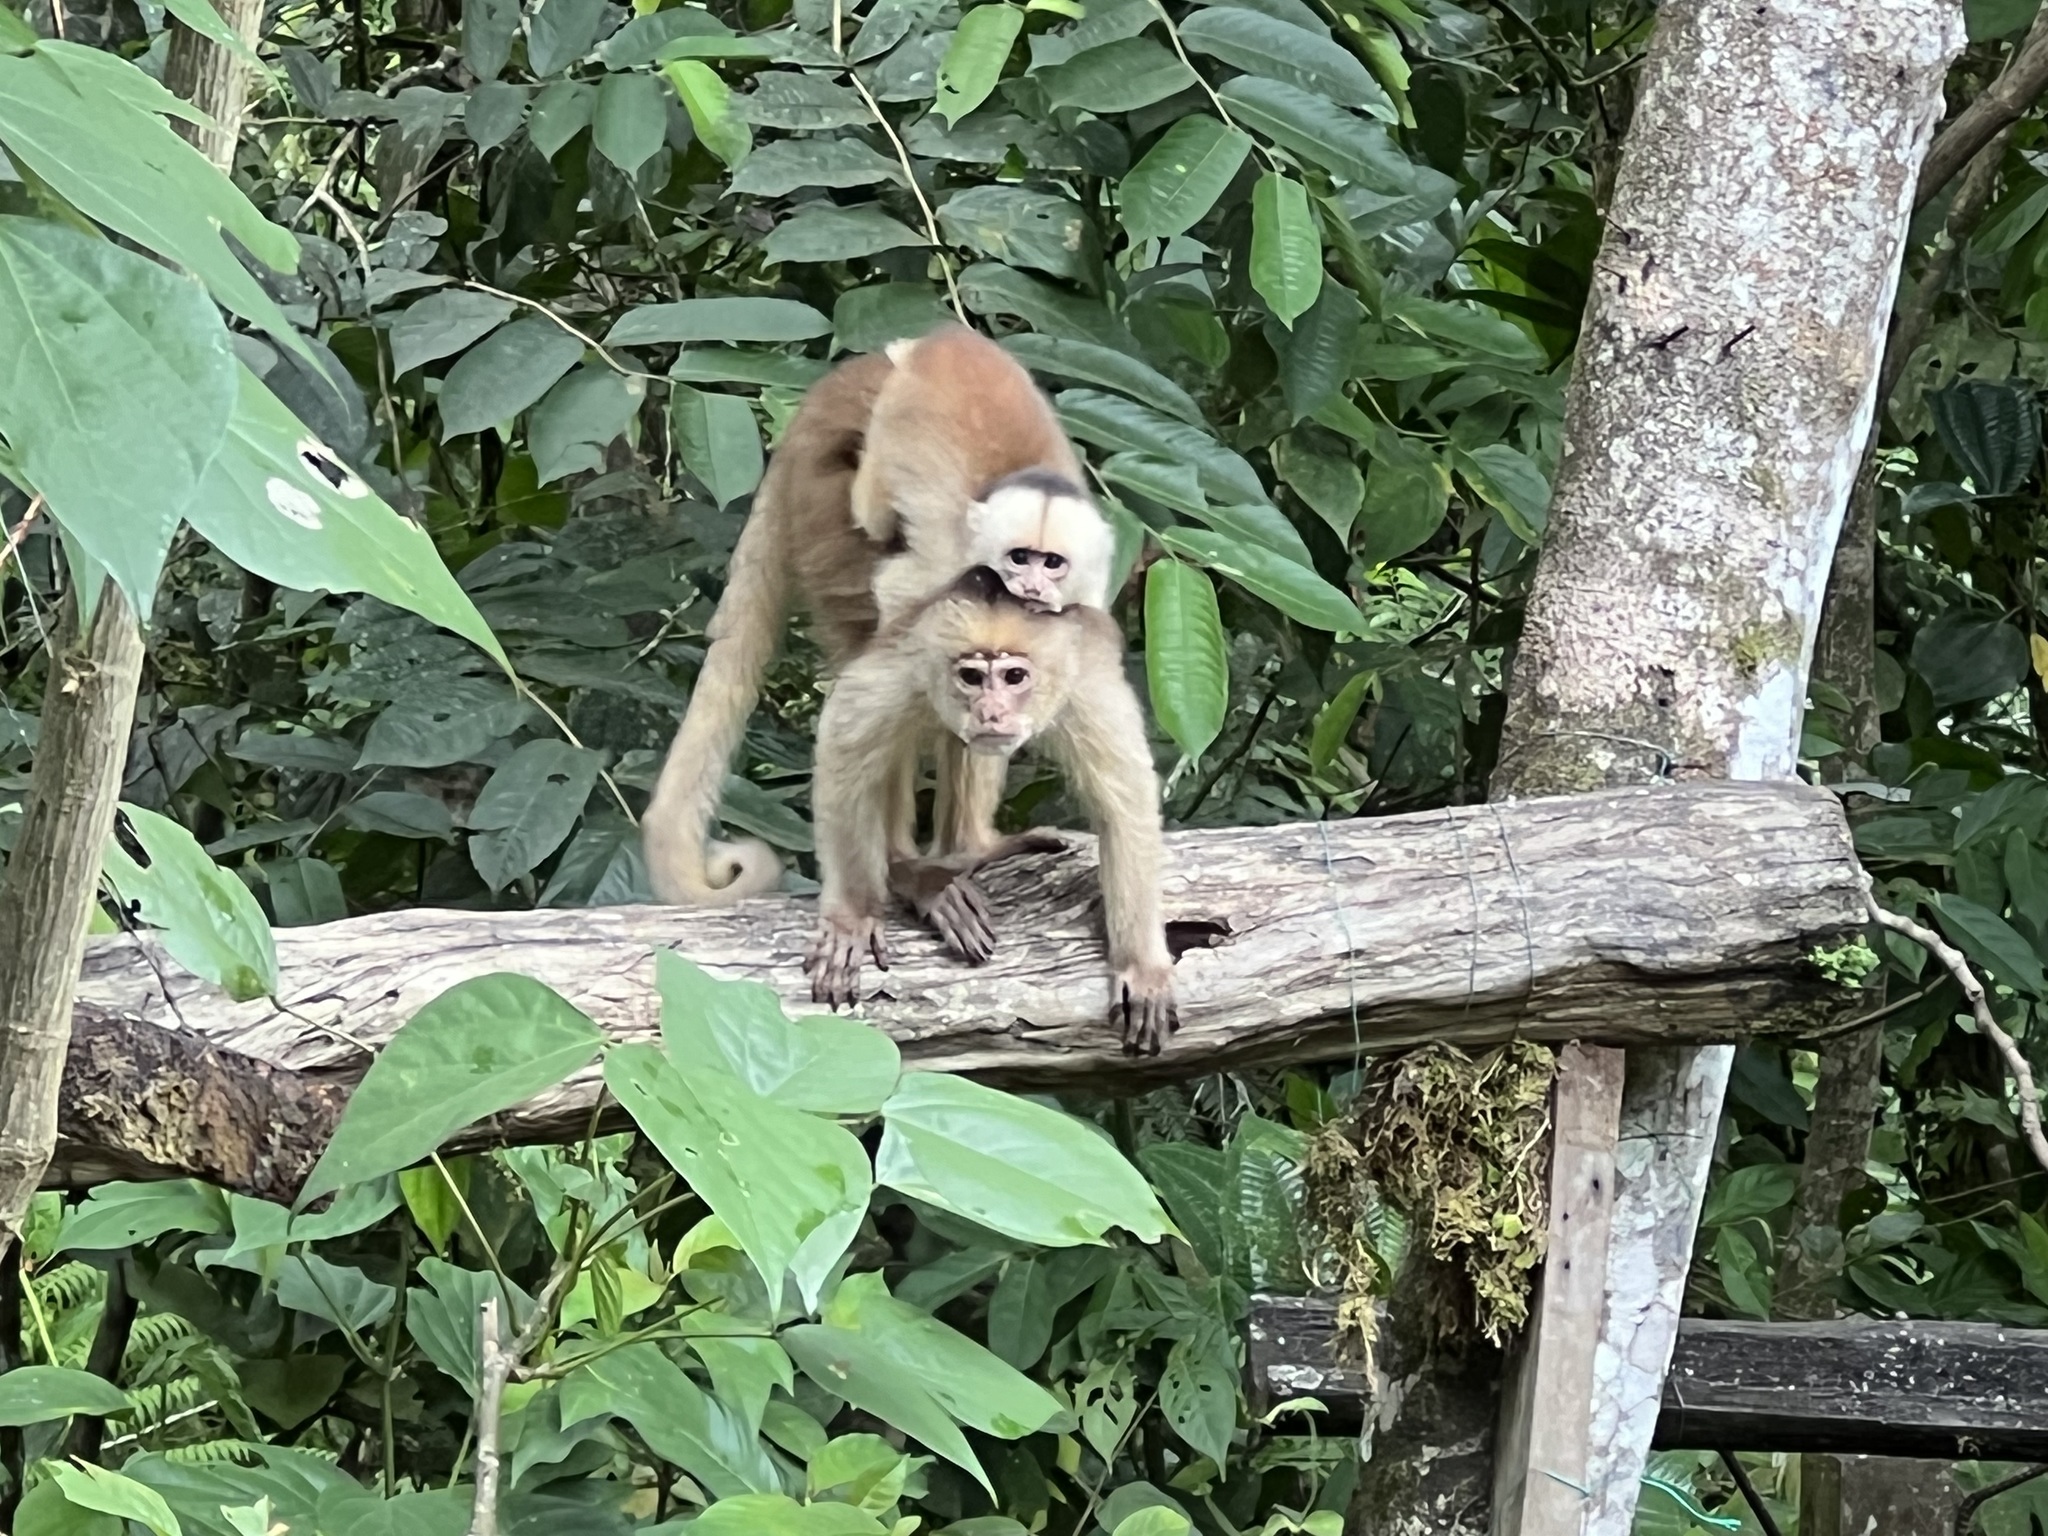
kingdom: Animalia
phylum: Chordata
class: Mammalia
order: Primates
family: Cebidae
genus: Cebus
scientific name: Cebus yuracus
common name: Peruvian white-fronted capuchin
